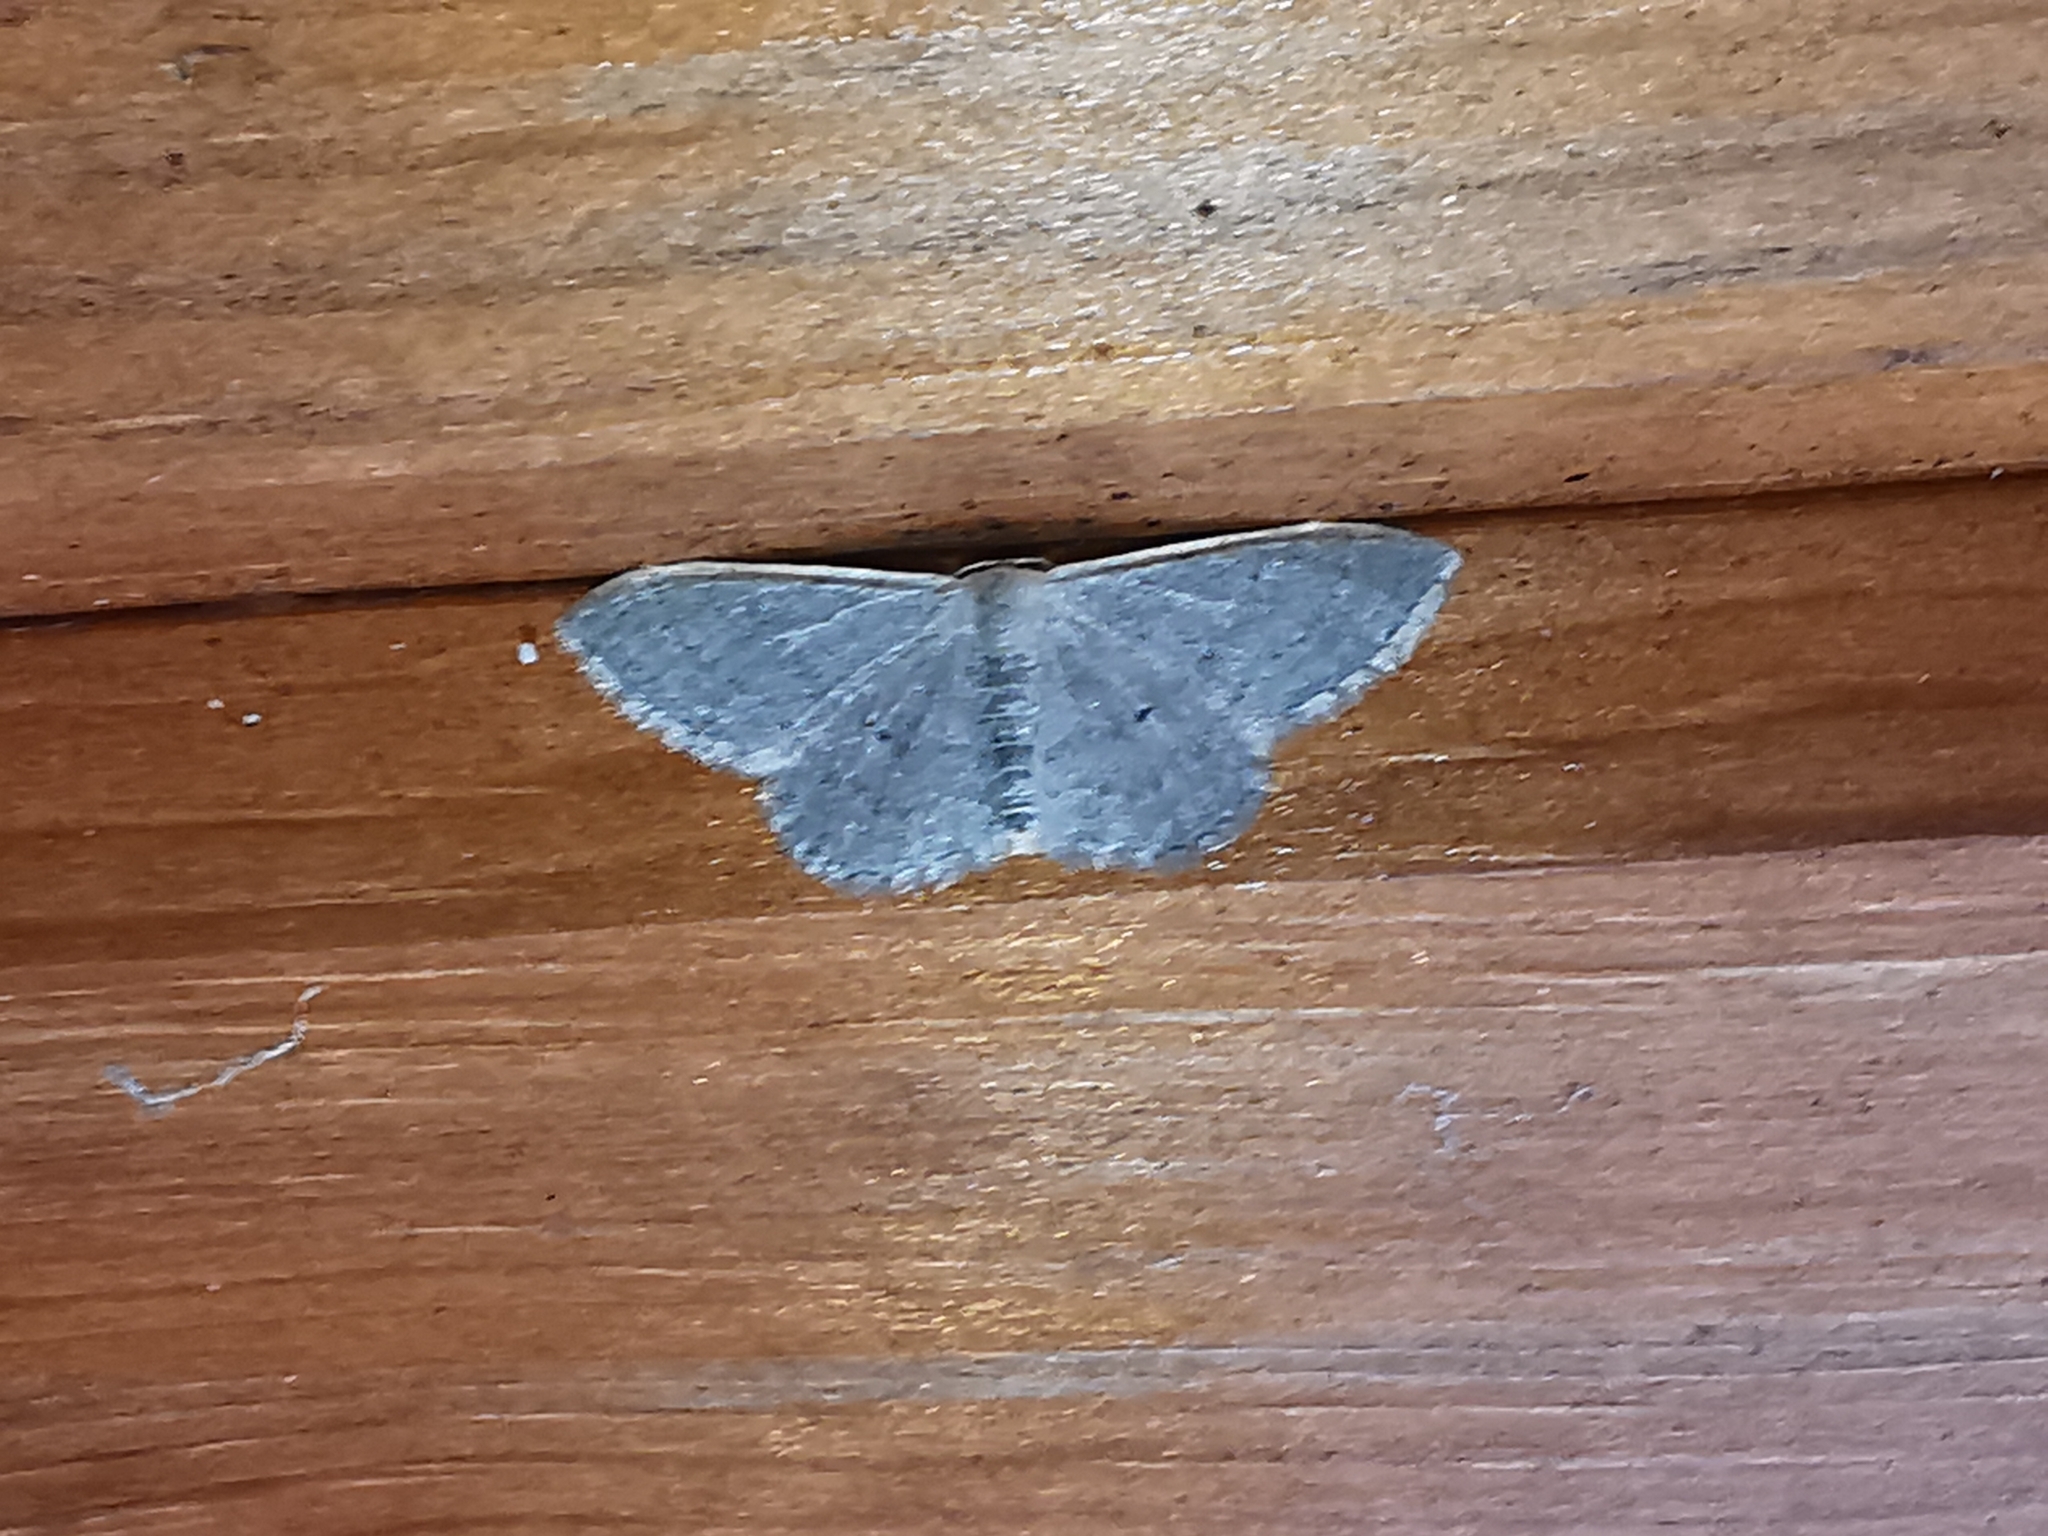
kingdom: Animalia
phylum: Arthropoda
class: Insecta
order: Lepidoptera
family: Geometridae
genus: Idaea
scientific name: Idaea distinctaria
